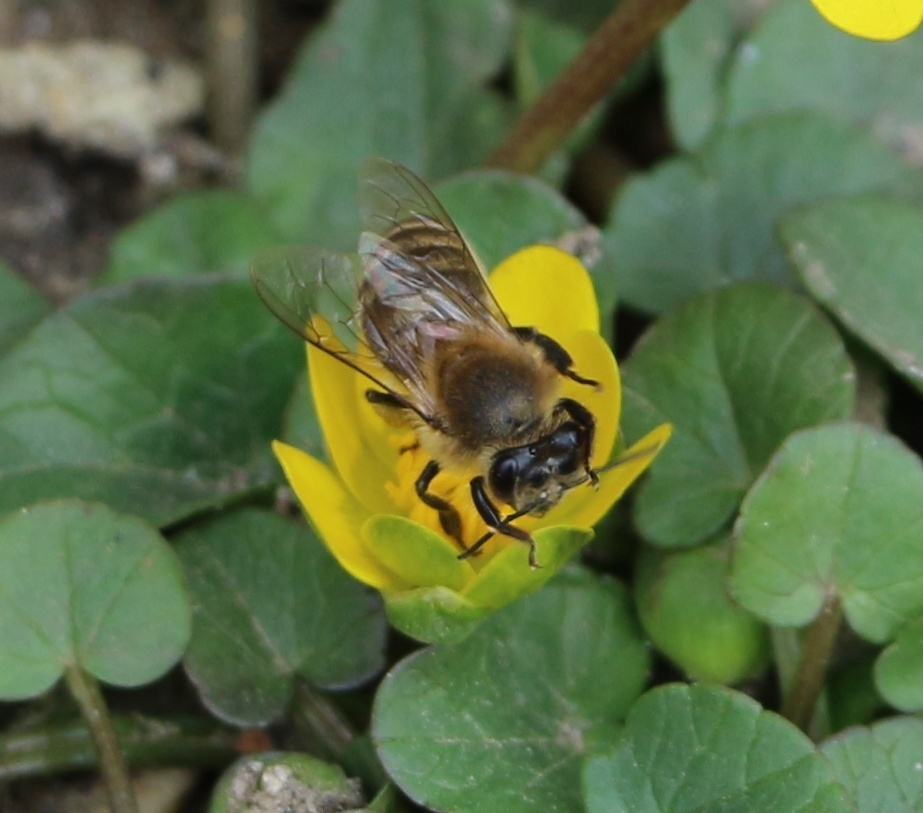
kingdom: Animalia
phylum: Arthropoda
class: Insecta
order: Hymenoptera
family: Apidae
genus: Apis
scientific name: Apis mellifera
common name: Honey bee
